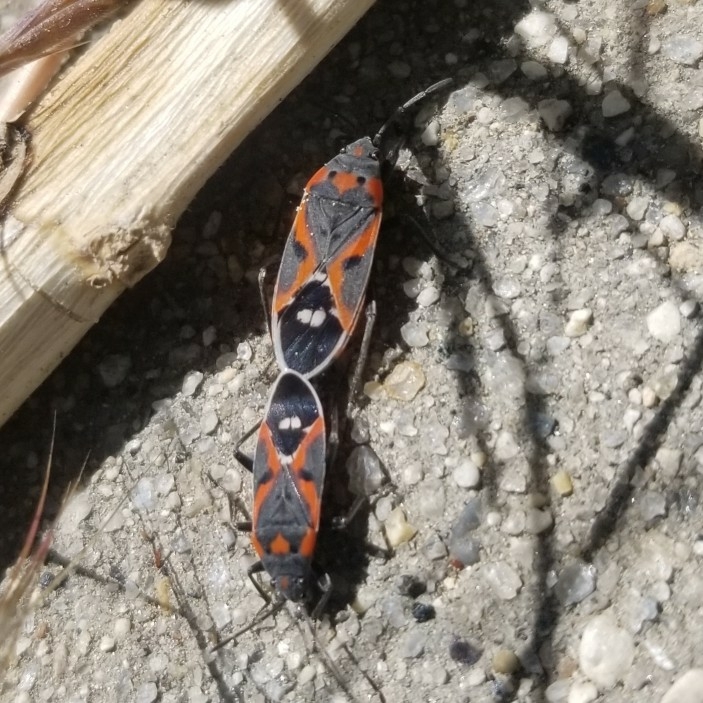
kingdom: Animalia
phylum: Arthropoda
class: Insecta
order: Hemiptera
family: Lygaeidae
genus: Lygaeus
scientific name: Lygaeus kalmii
